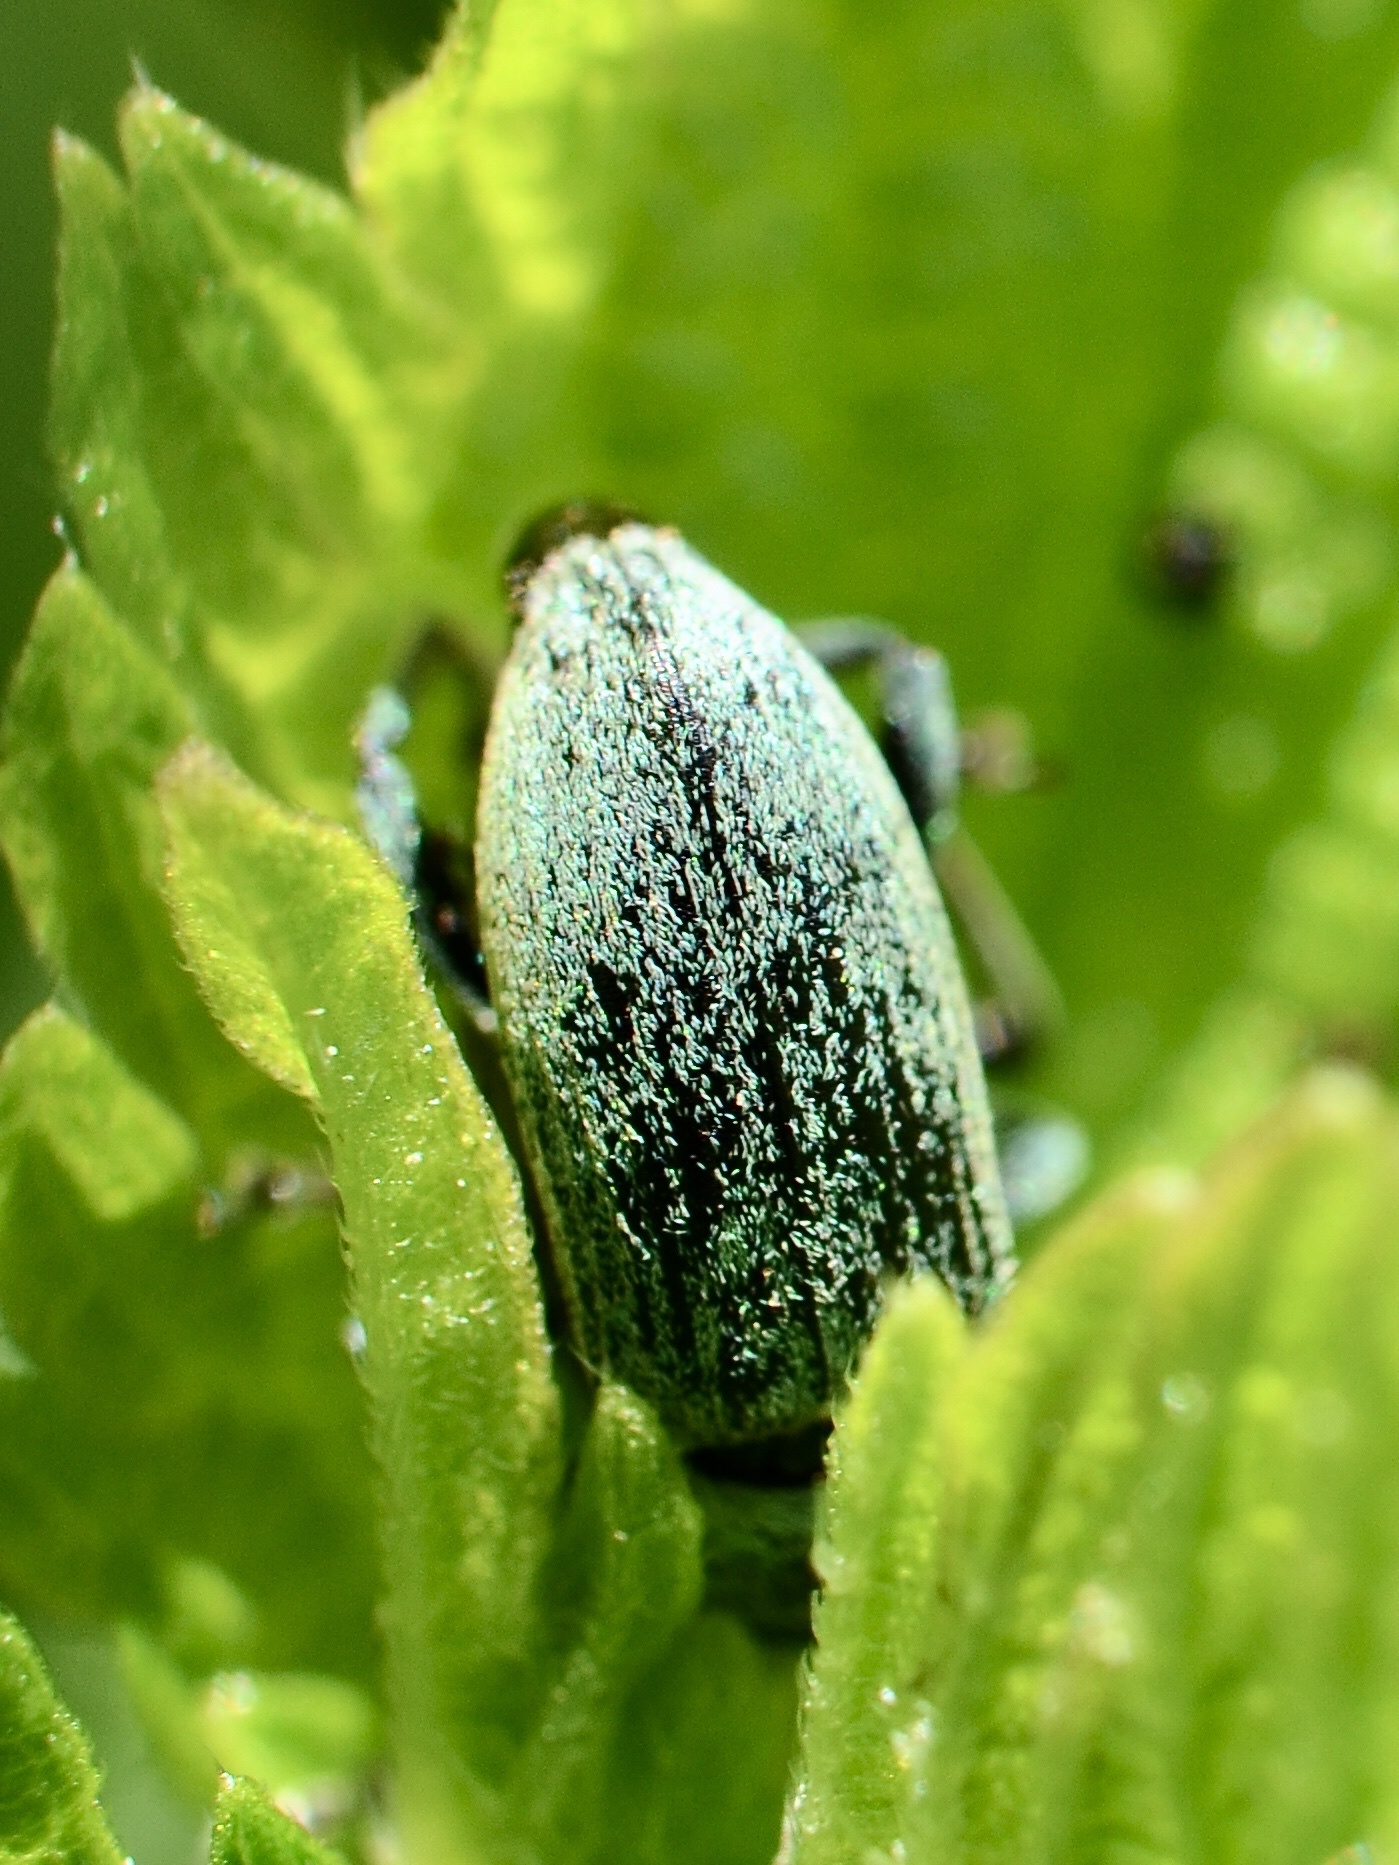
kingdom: Animalia
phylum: Arthropoda
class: Insecta
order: Coleoptera
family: Curculionidae
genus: Phyllobius
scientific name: Phyllobius pomaceus
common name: Green nettle weevil
